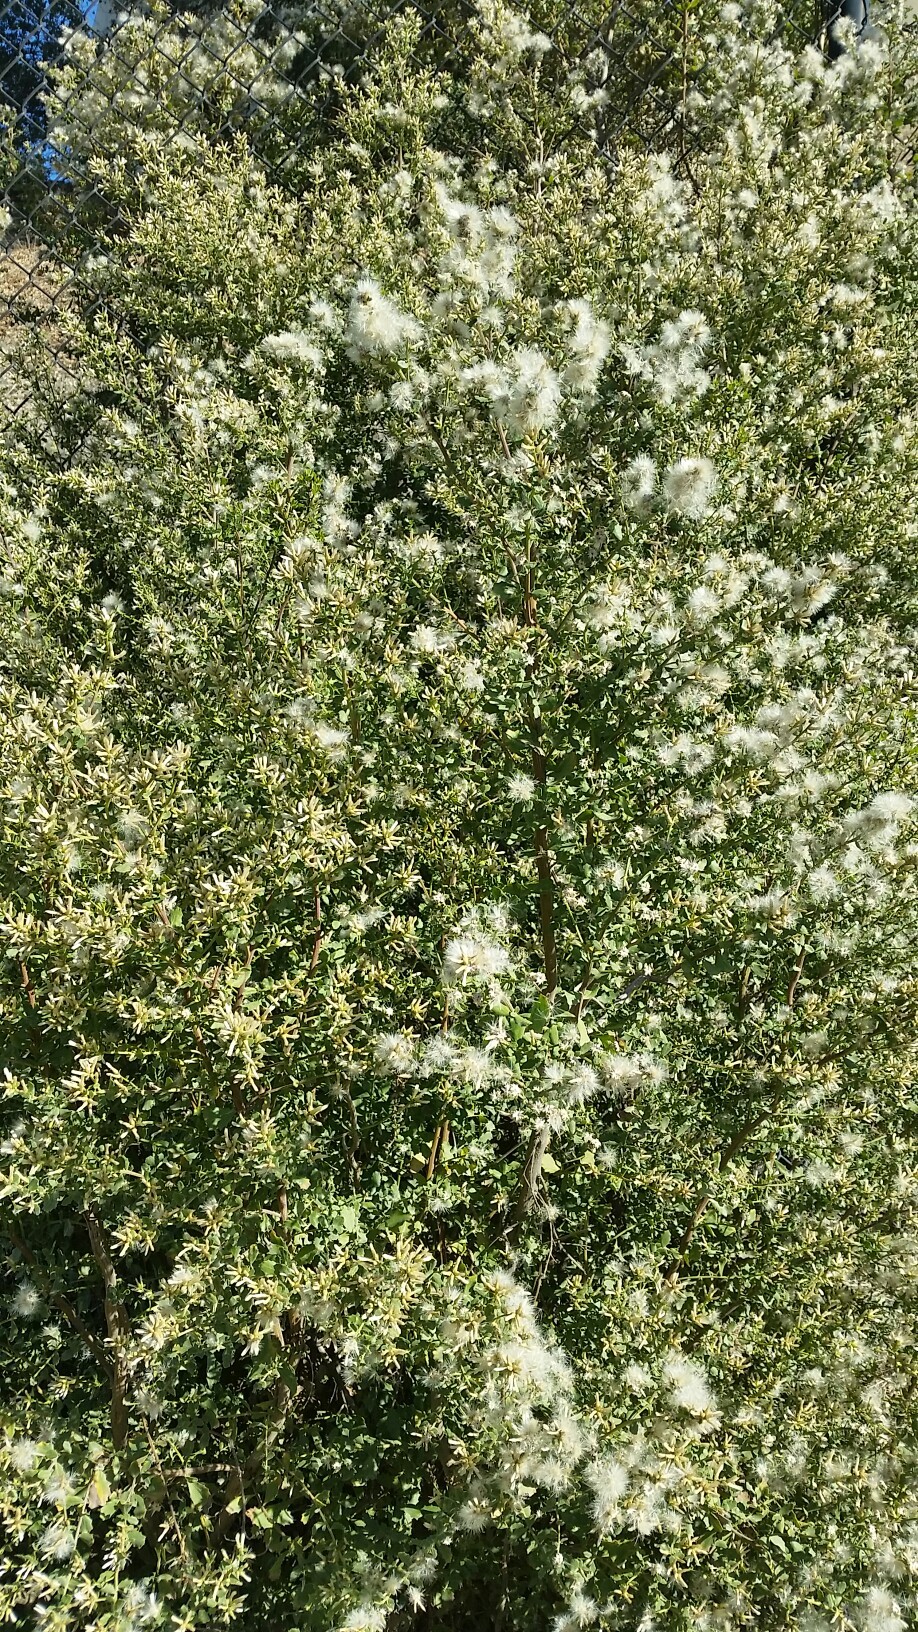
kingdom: Plantae
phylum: Tracheophyta
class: Magnoliopsida
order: Asterales
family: Asteraceae
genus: Baccharis
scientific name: Baccharis pilularis
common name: Coyotebrush
